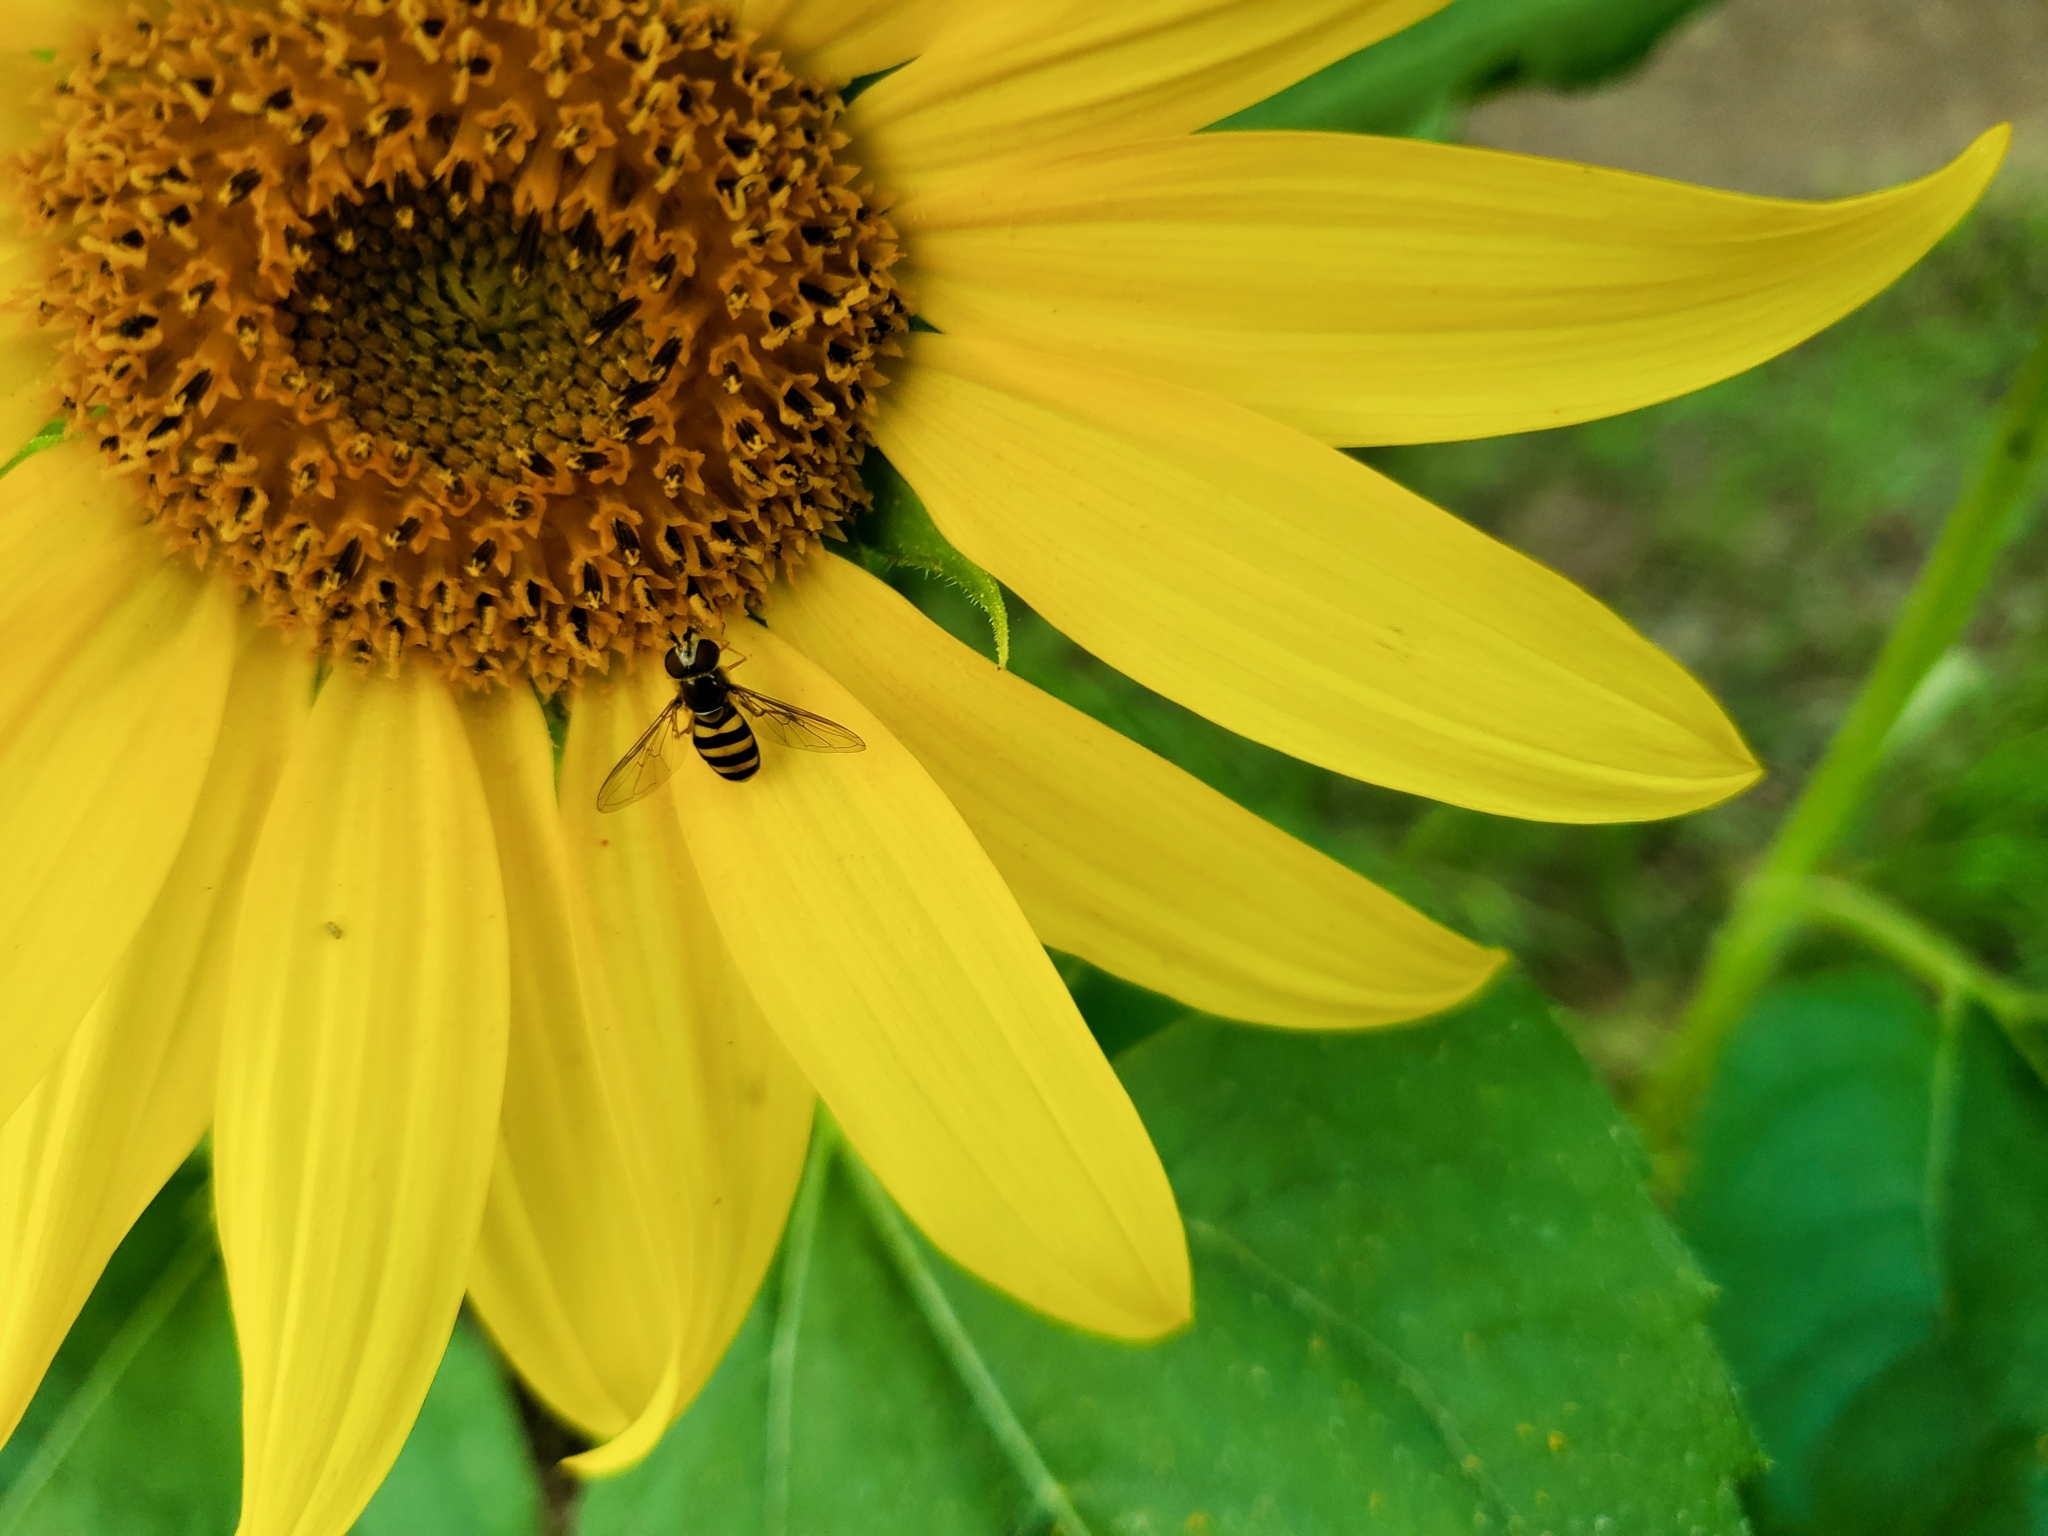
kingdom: Animalia
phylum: Arthropoda
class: Insecta
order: Diptera
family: Syrphidae
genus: Eupeodes
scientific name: Eupeodes
